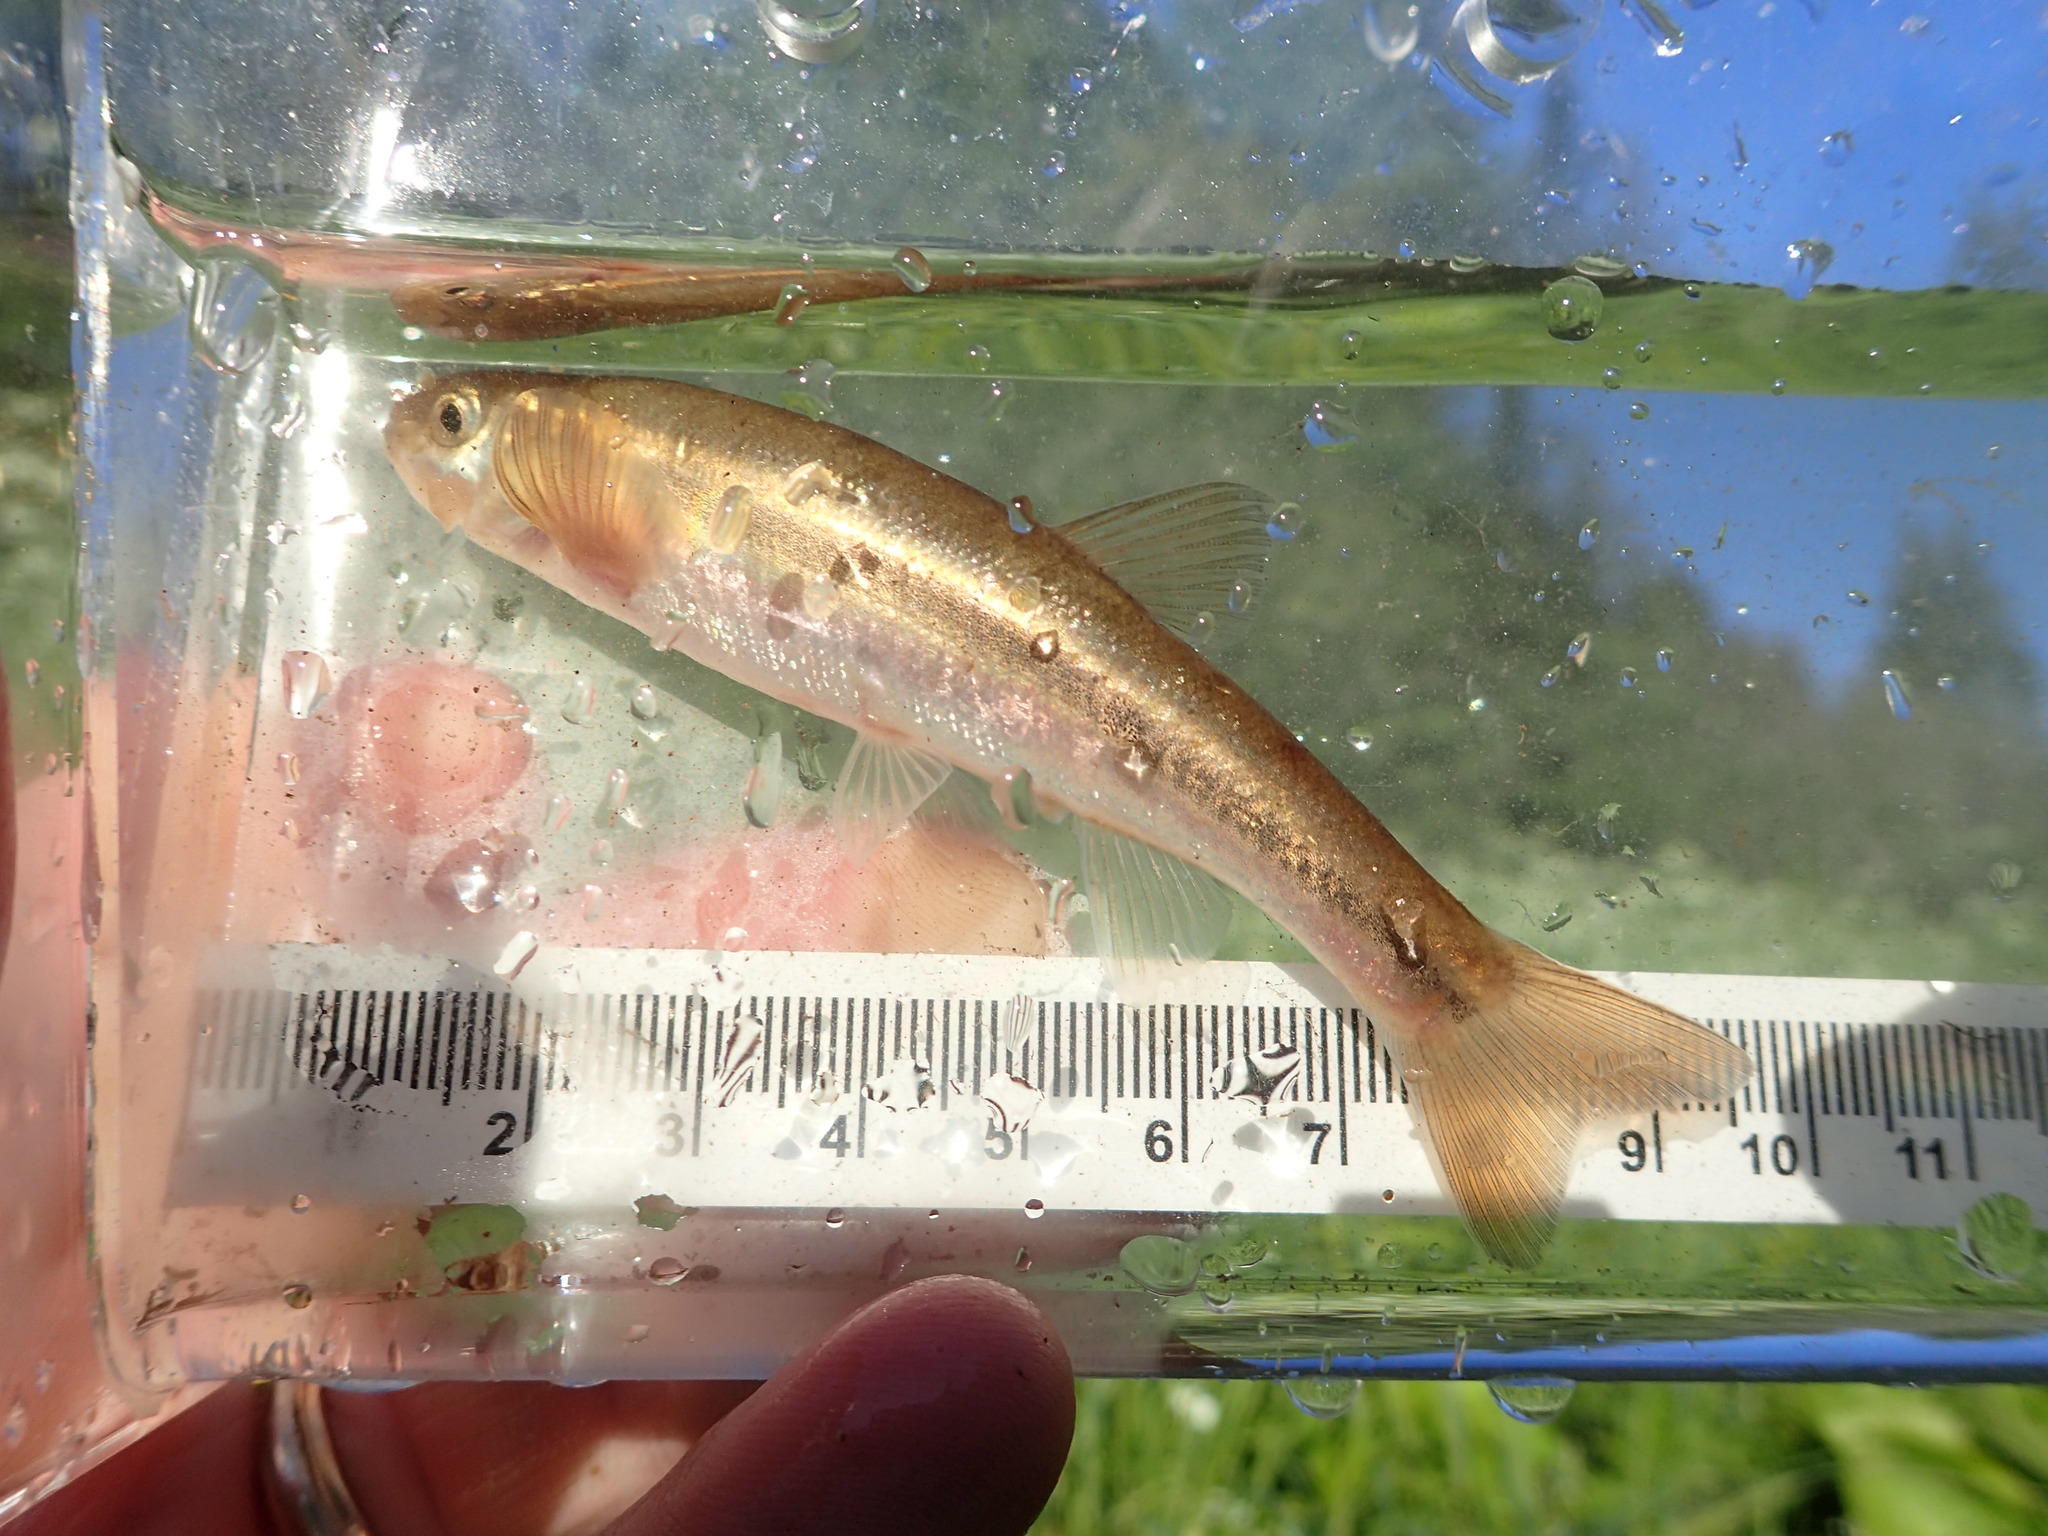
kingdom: Animalia
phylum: Chordata
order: Cypriniformes
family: Cyprinidae
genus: Margariscus
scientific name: Margariscus nachtriebi
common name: Northern pearl dace
